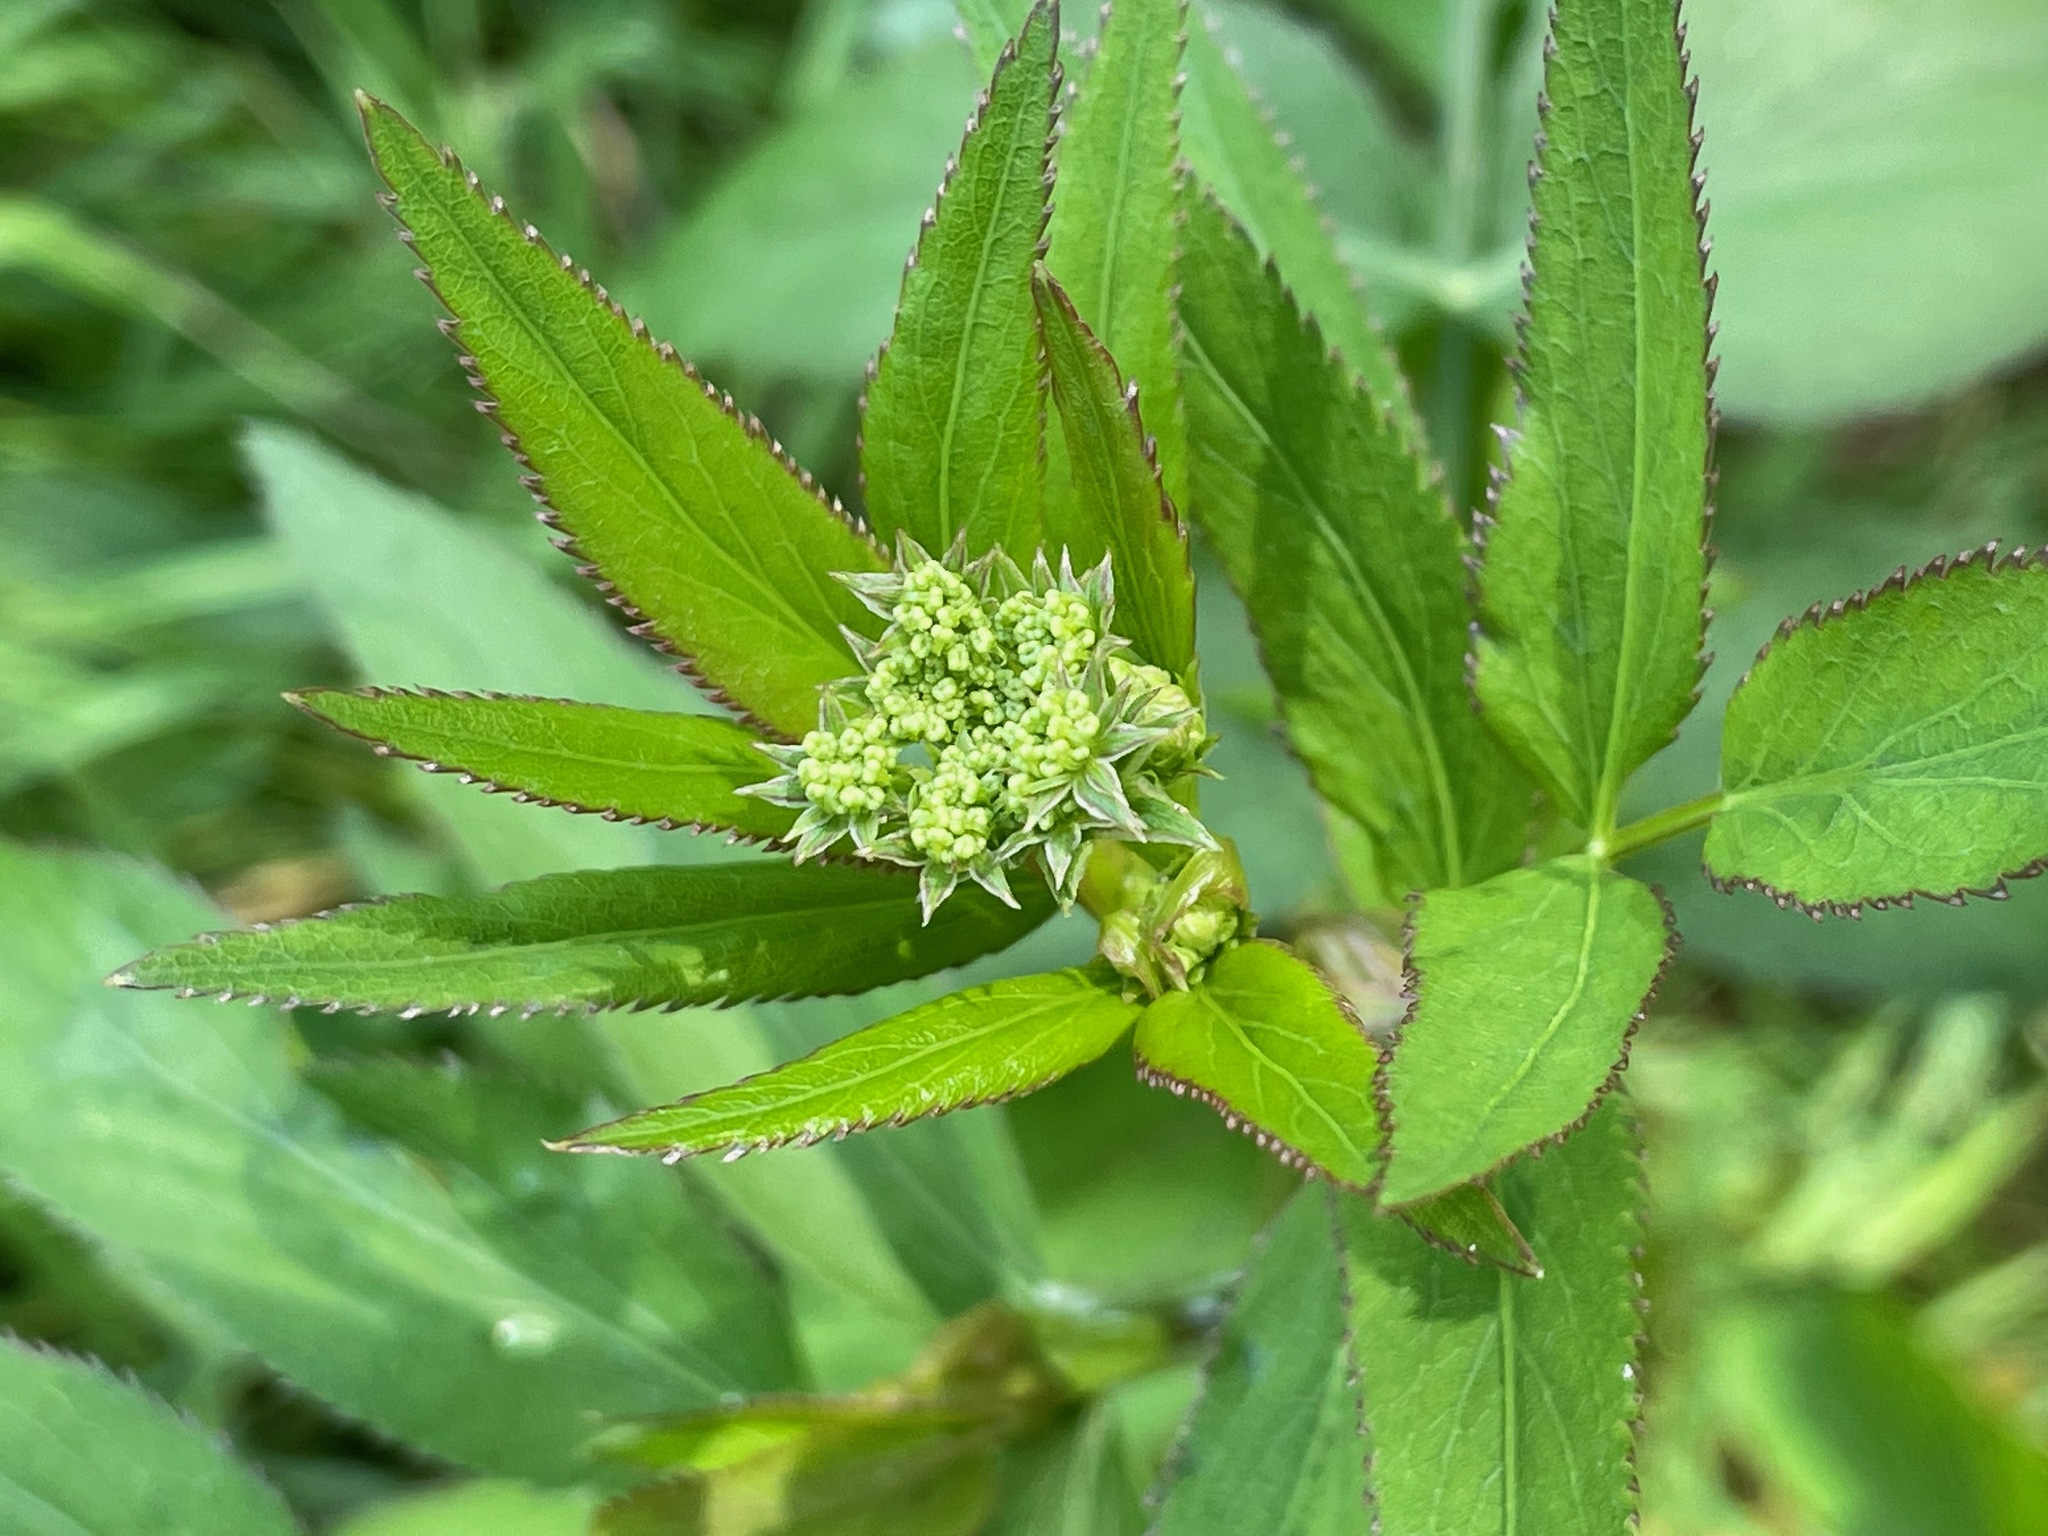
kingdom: Plantae
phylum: Tracheophyta
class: Magnoliopsida
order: Apiales
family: Apiaceae
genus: Sium
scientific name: Sium suave
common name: Hemlock water-parsnip
